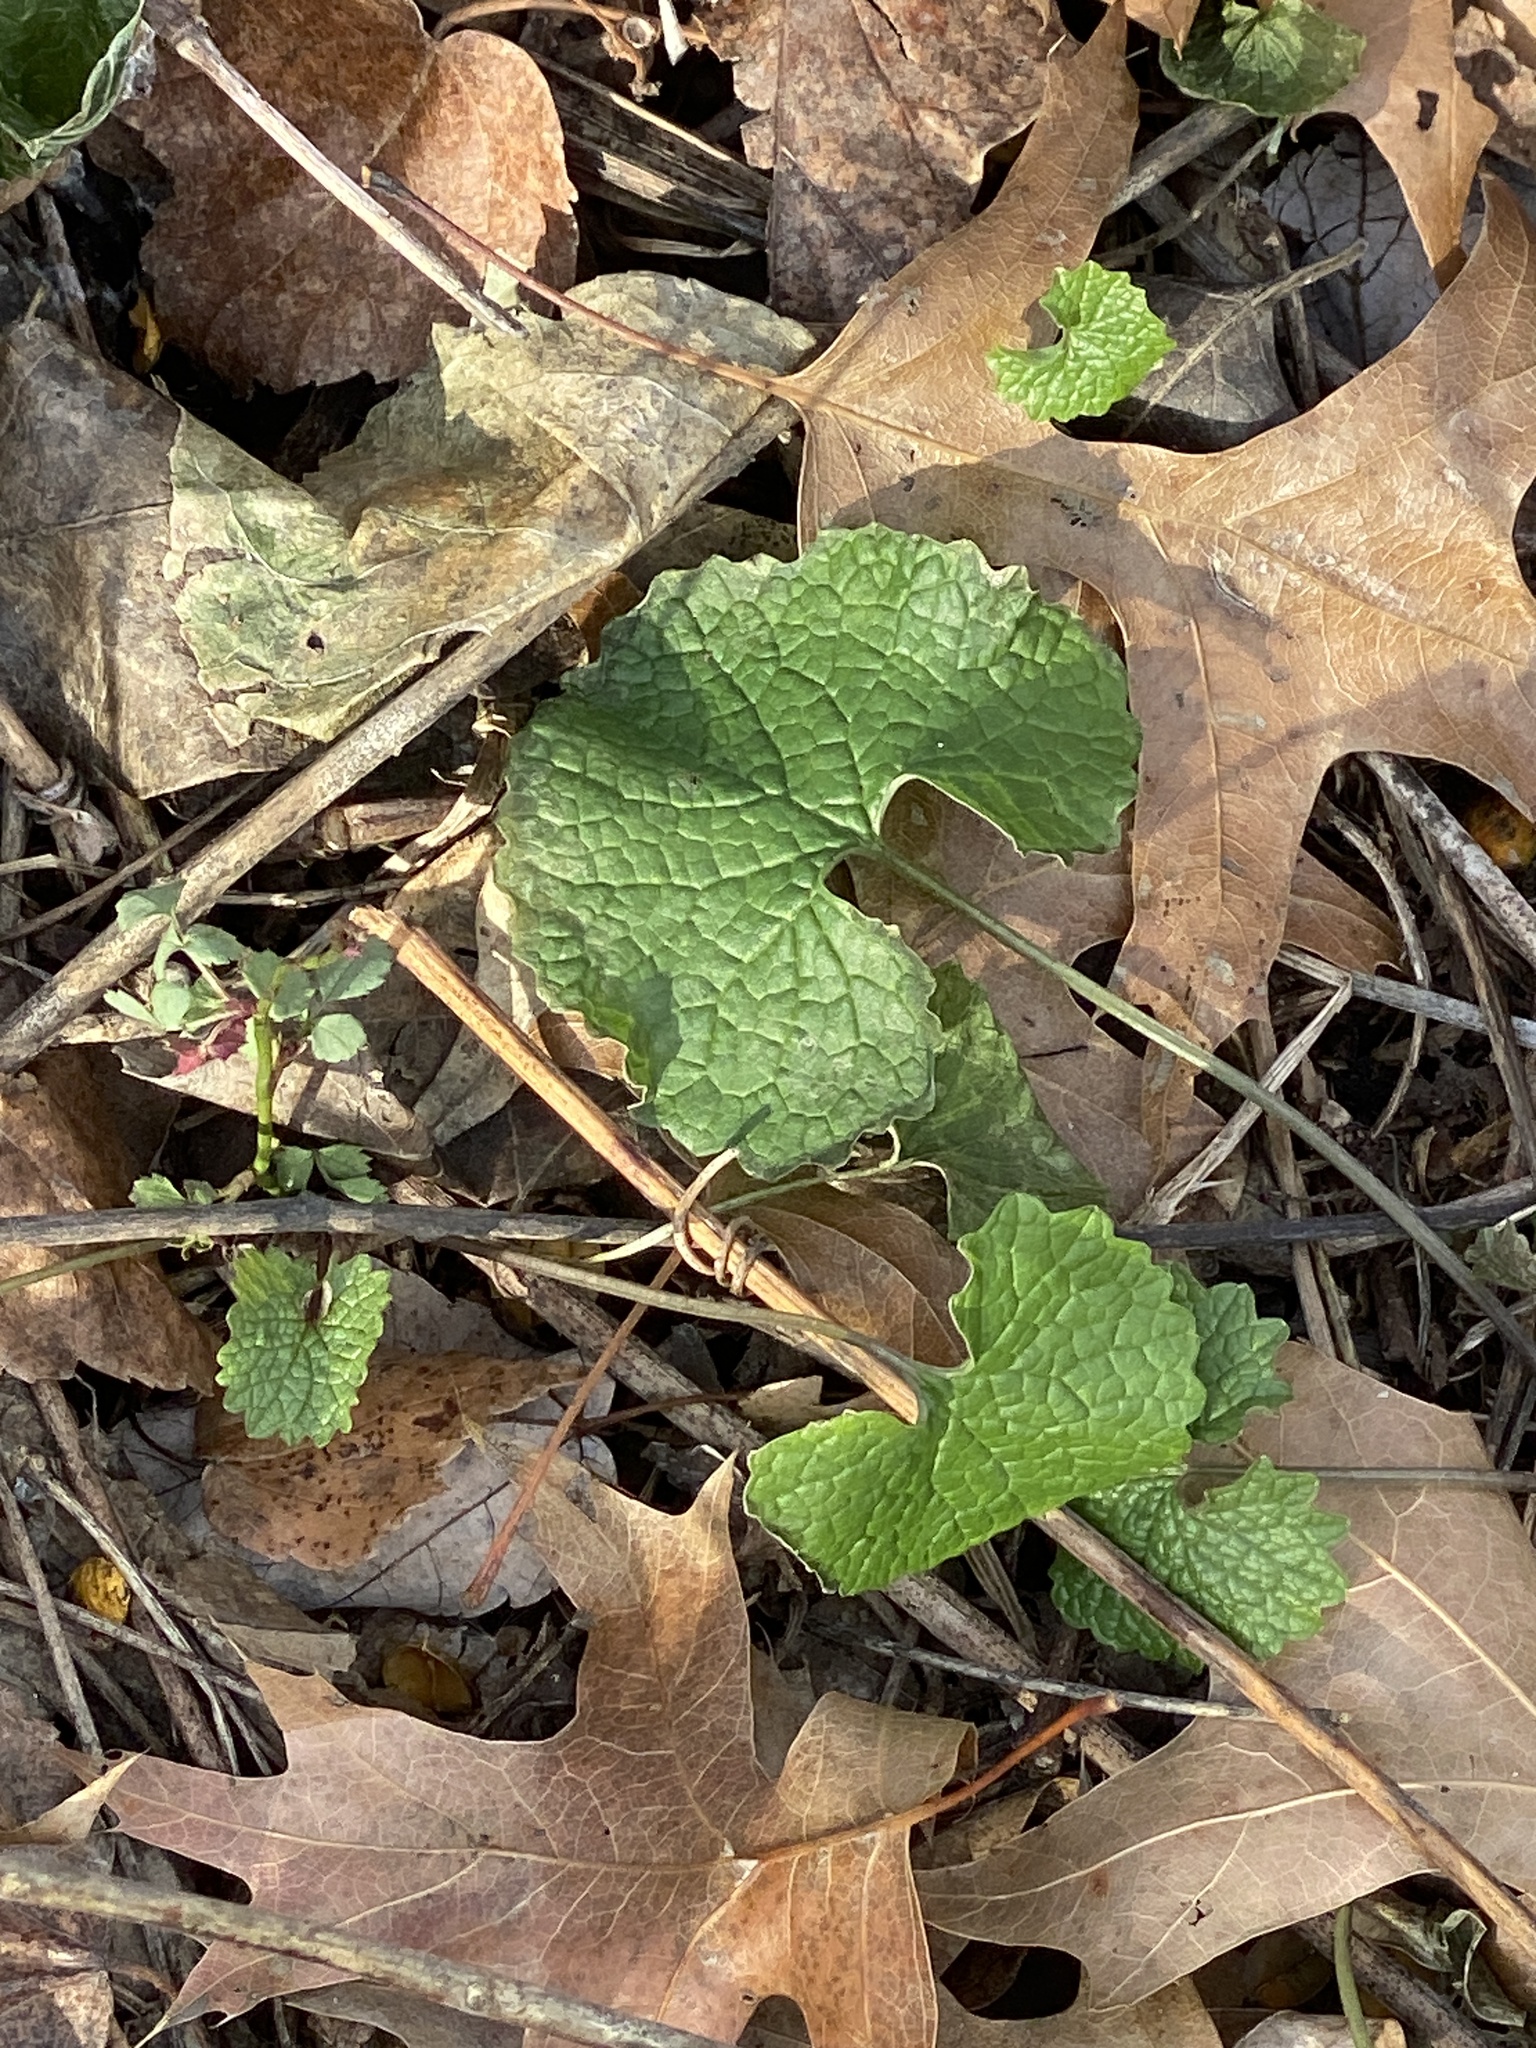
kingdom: Plantae
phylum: Tracheophyta
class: Magnoliopsida
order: Brassicales
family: Brassicaceae
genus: Alliaria
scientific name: Alliaria petiolata
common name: Garlic mustard
